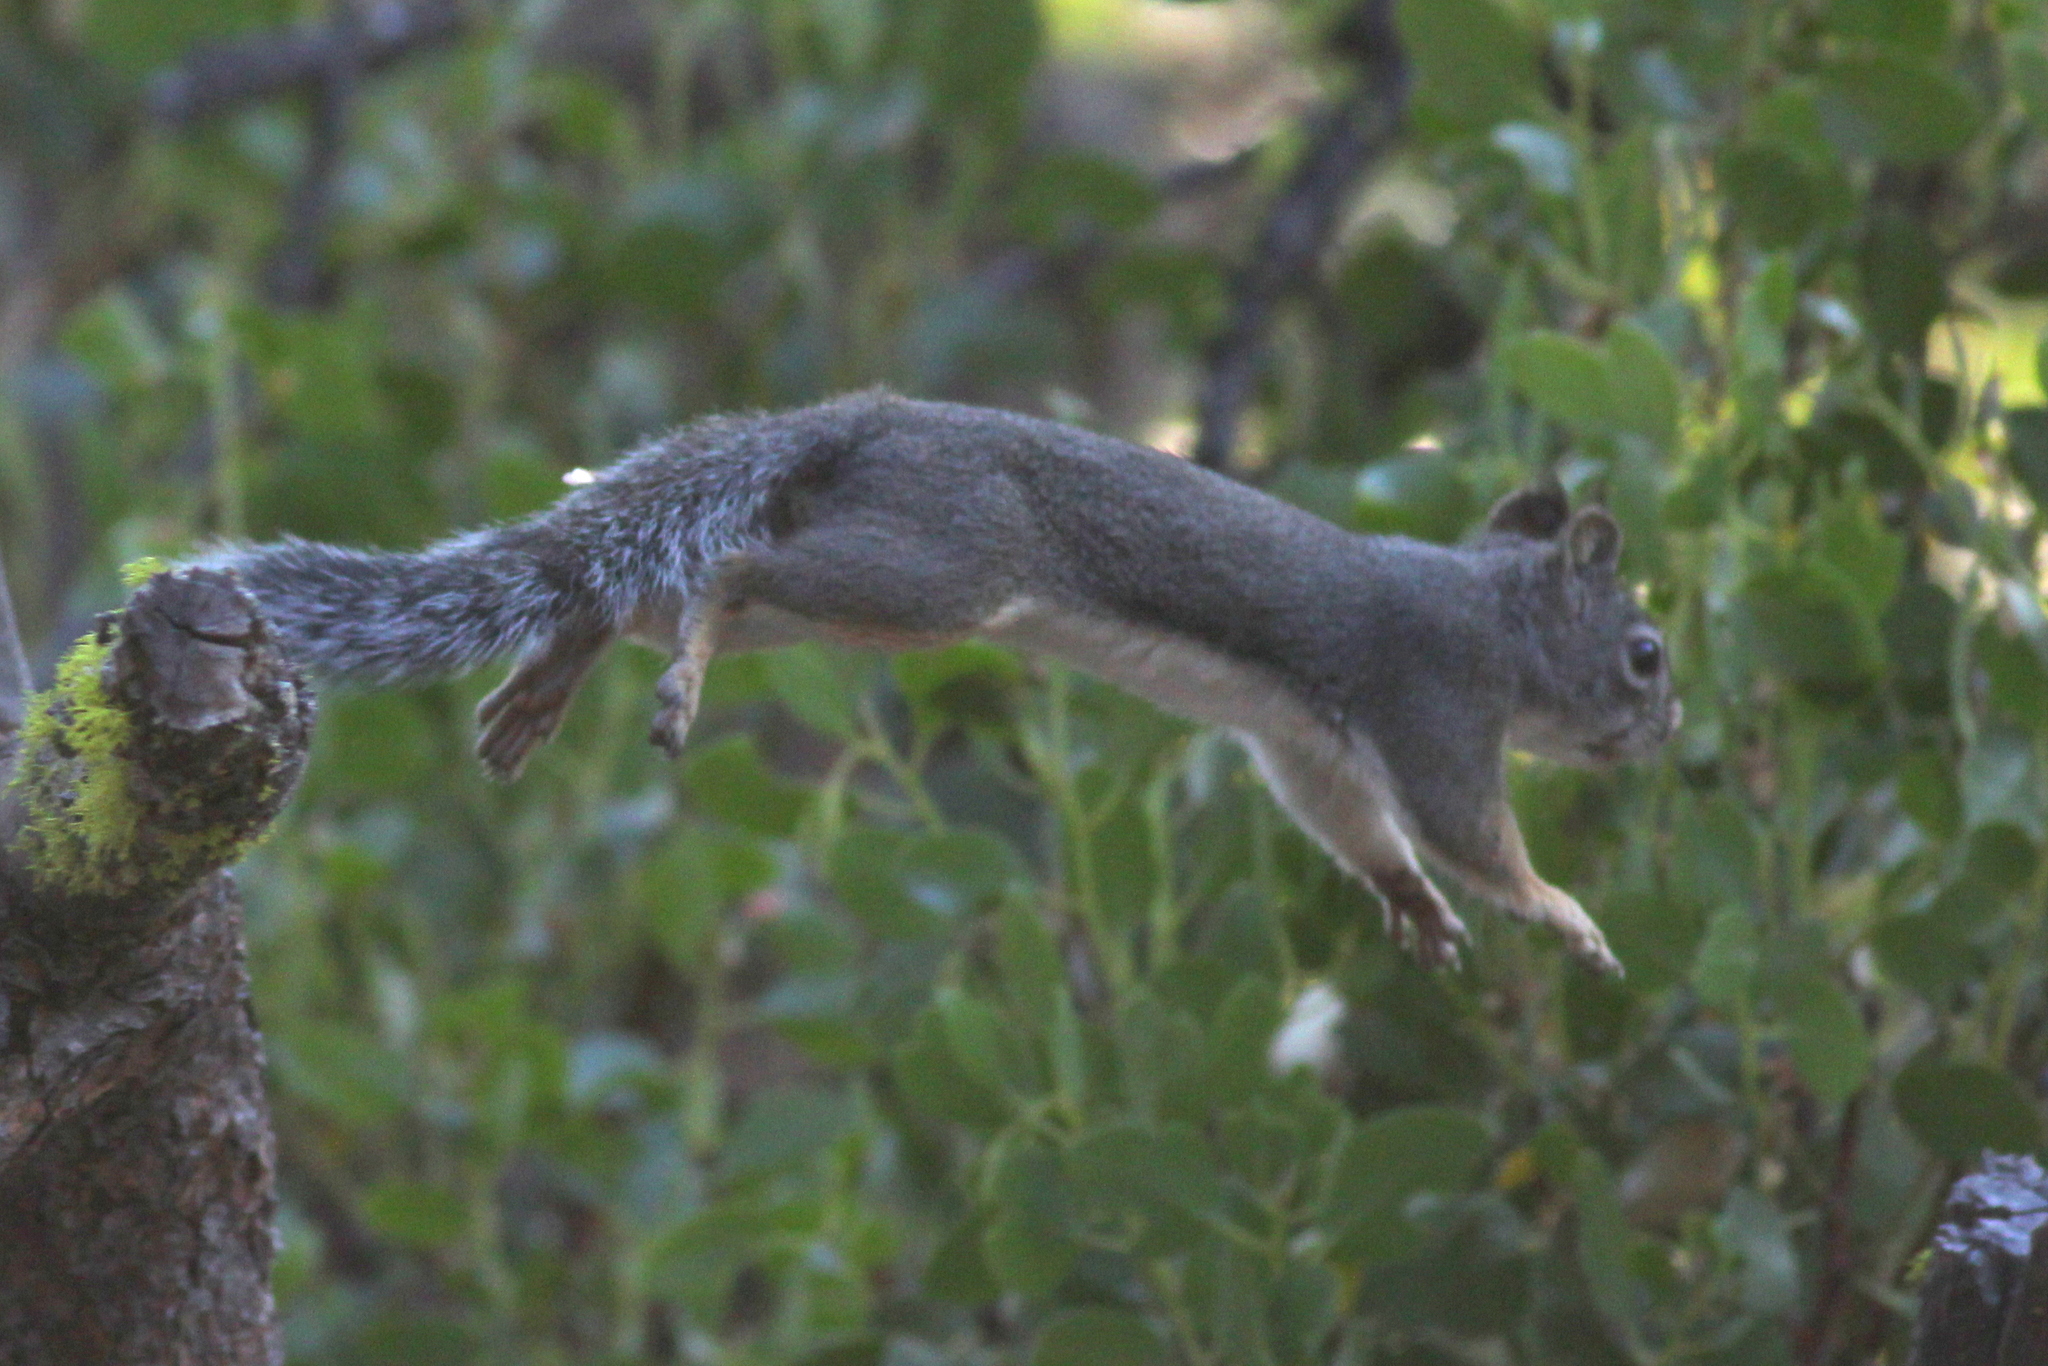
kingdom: Animalia
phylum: Chordata
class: Mammalia
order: Rodentia
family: Sciuridae
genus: Tamiasciurus
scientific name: Tamiasciurus douglasii
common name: Douglas's squirrel
